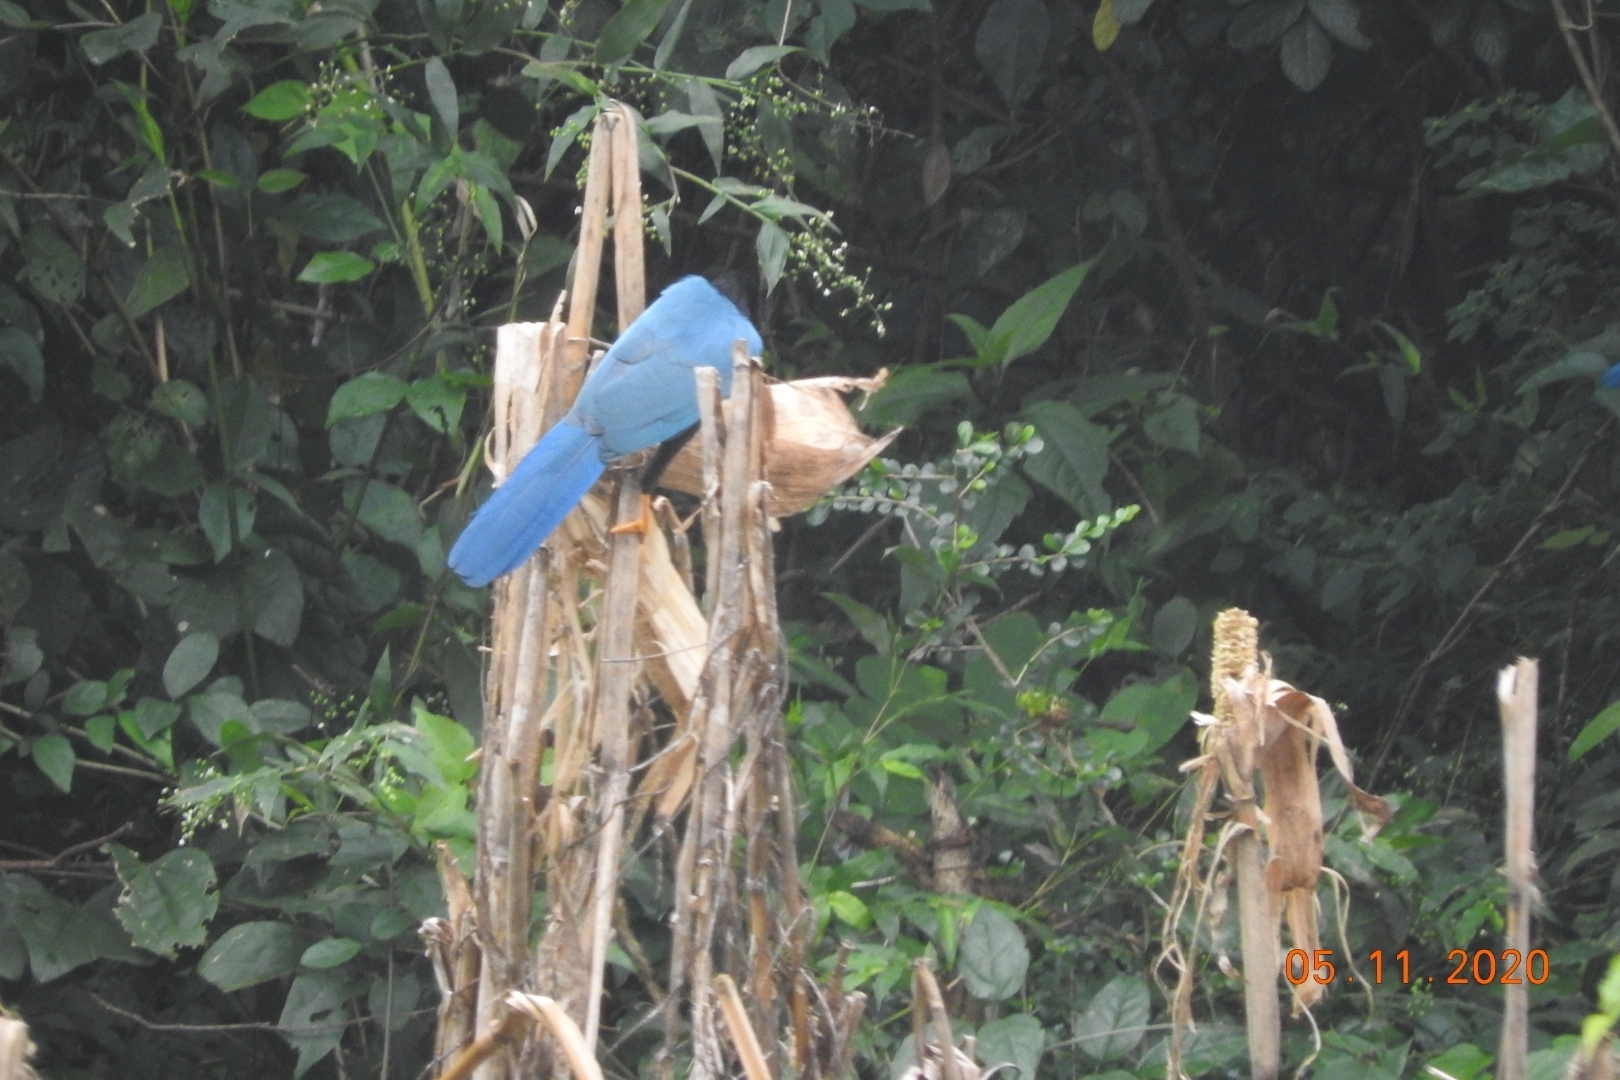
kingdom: Animalia
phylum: Chordata
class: Aves
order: Passeriformes
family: Corvidae
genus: Cyanocorax
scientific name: Cyanocorax yucatanicus
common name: Yucatan jay
